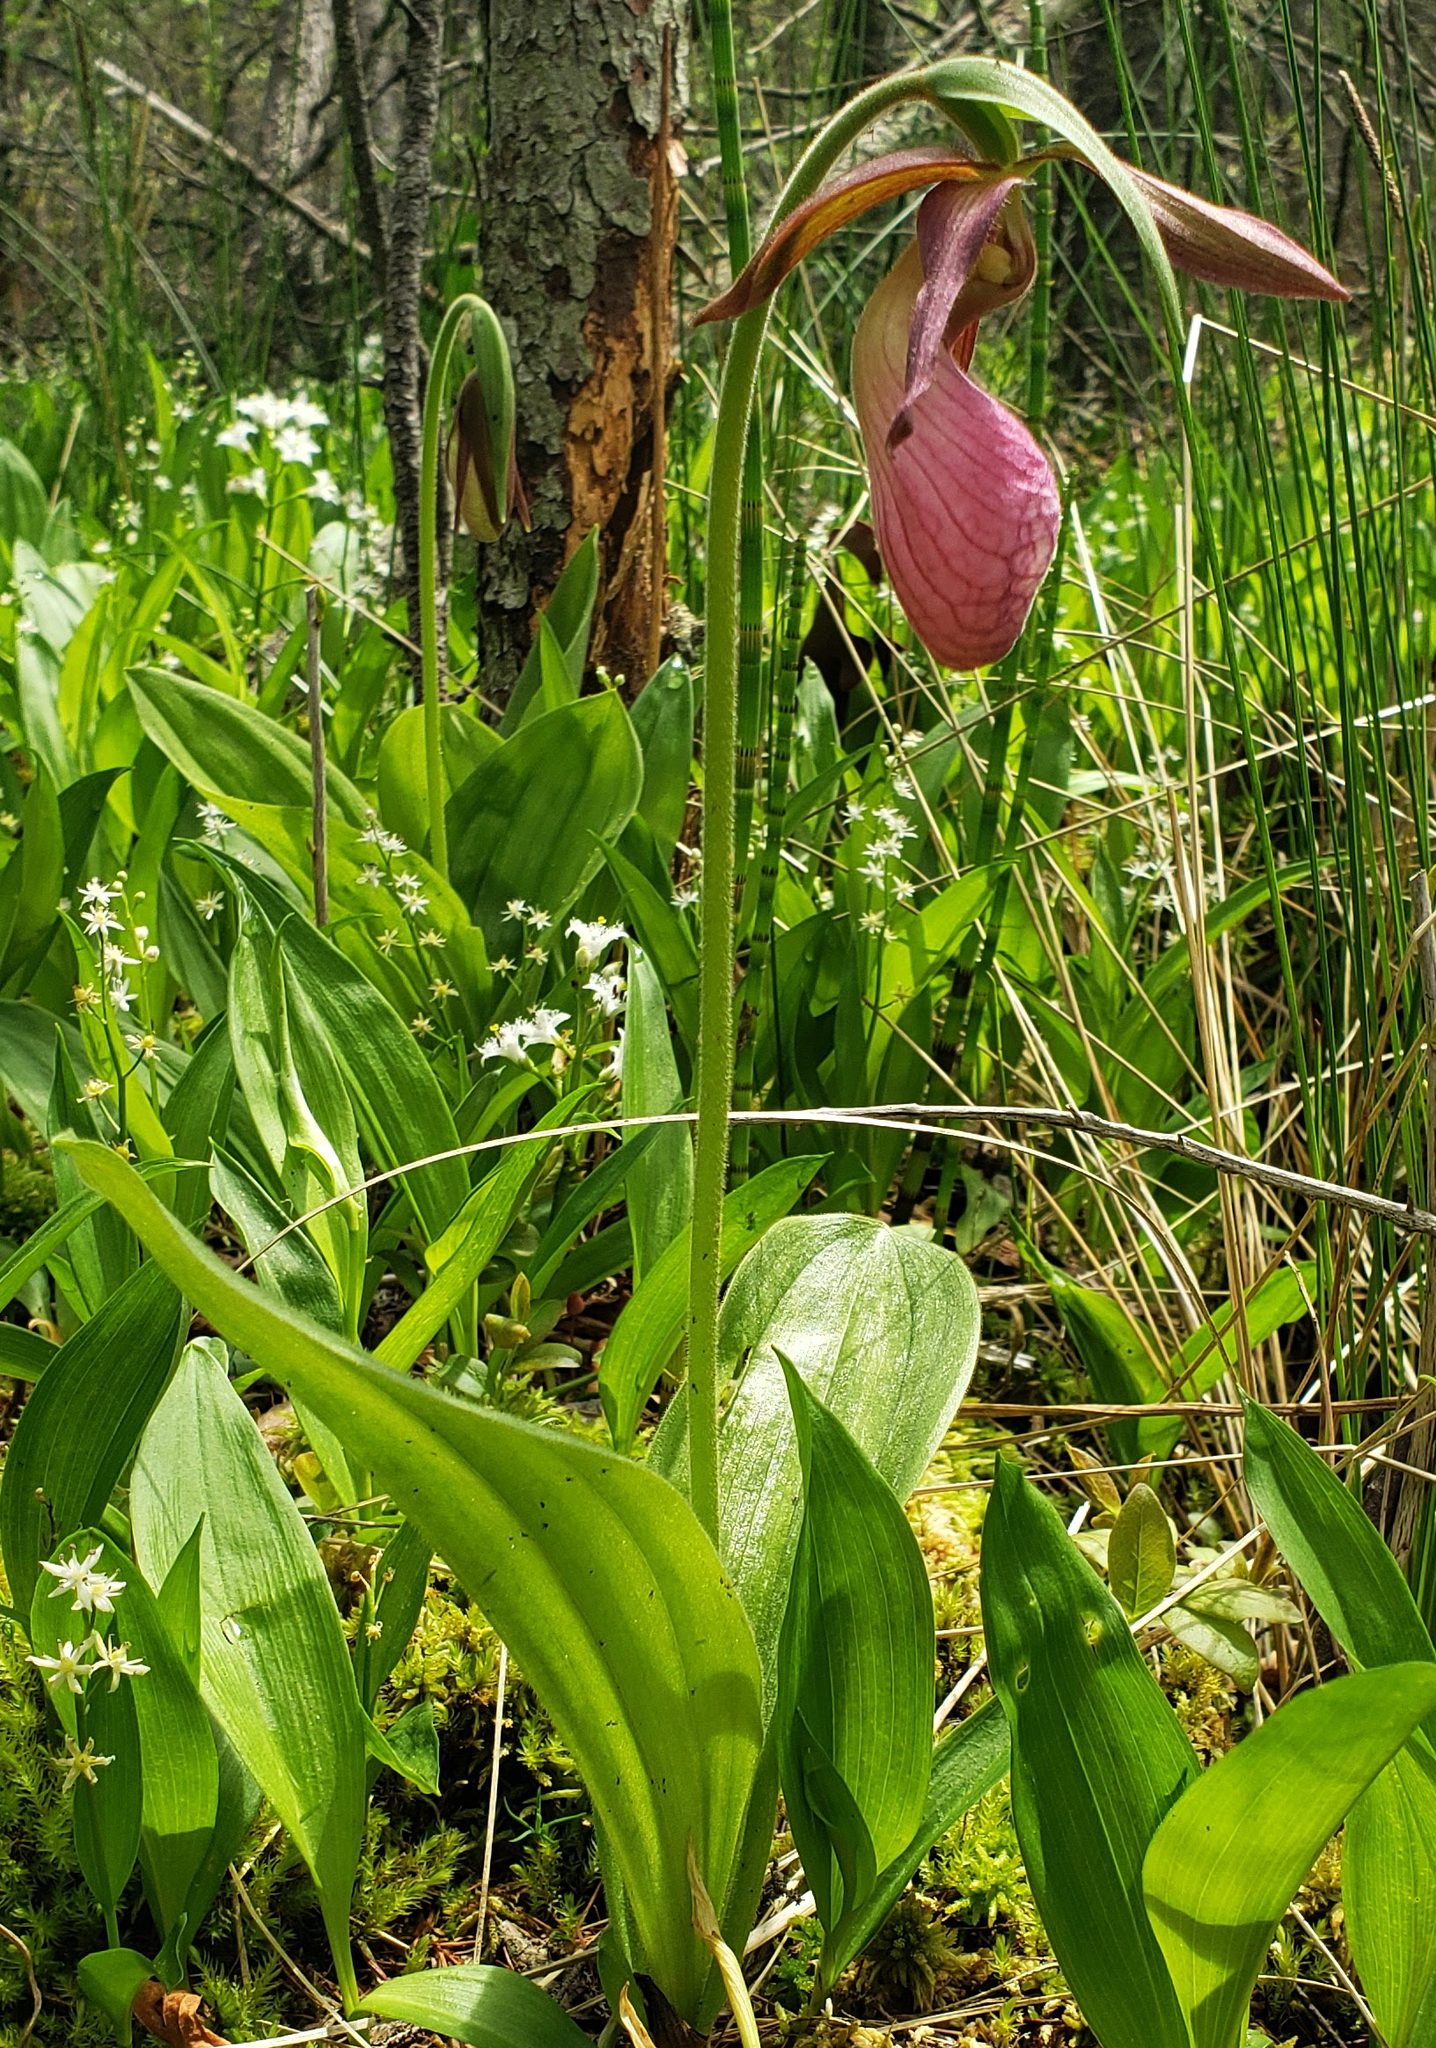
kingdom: Plantae
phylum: Tracheophyta
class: Liliopsida
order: Asparagales
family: Orchidaceae
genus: Cypripedium
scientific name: Cypripedium acaule
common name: Pink lady's-slipper
